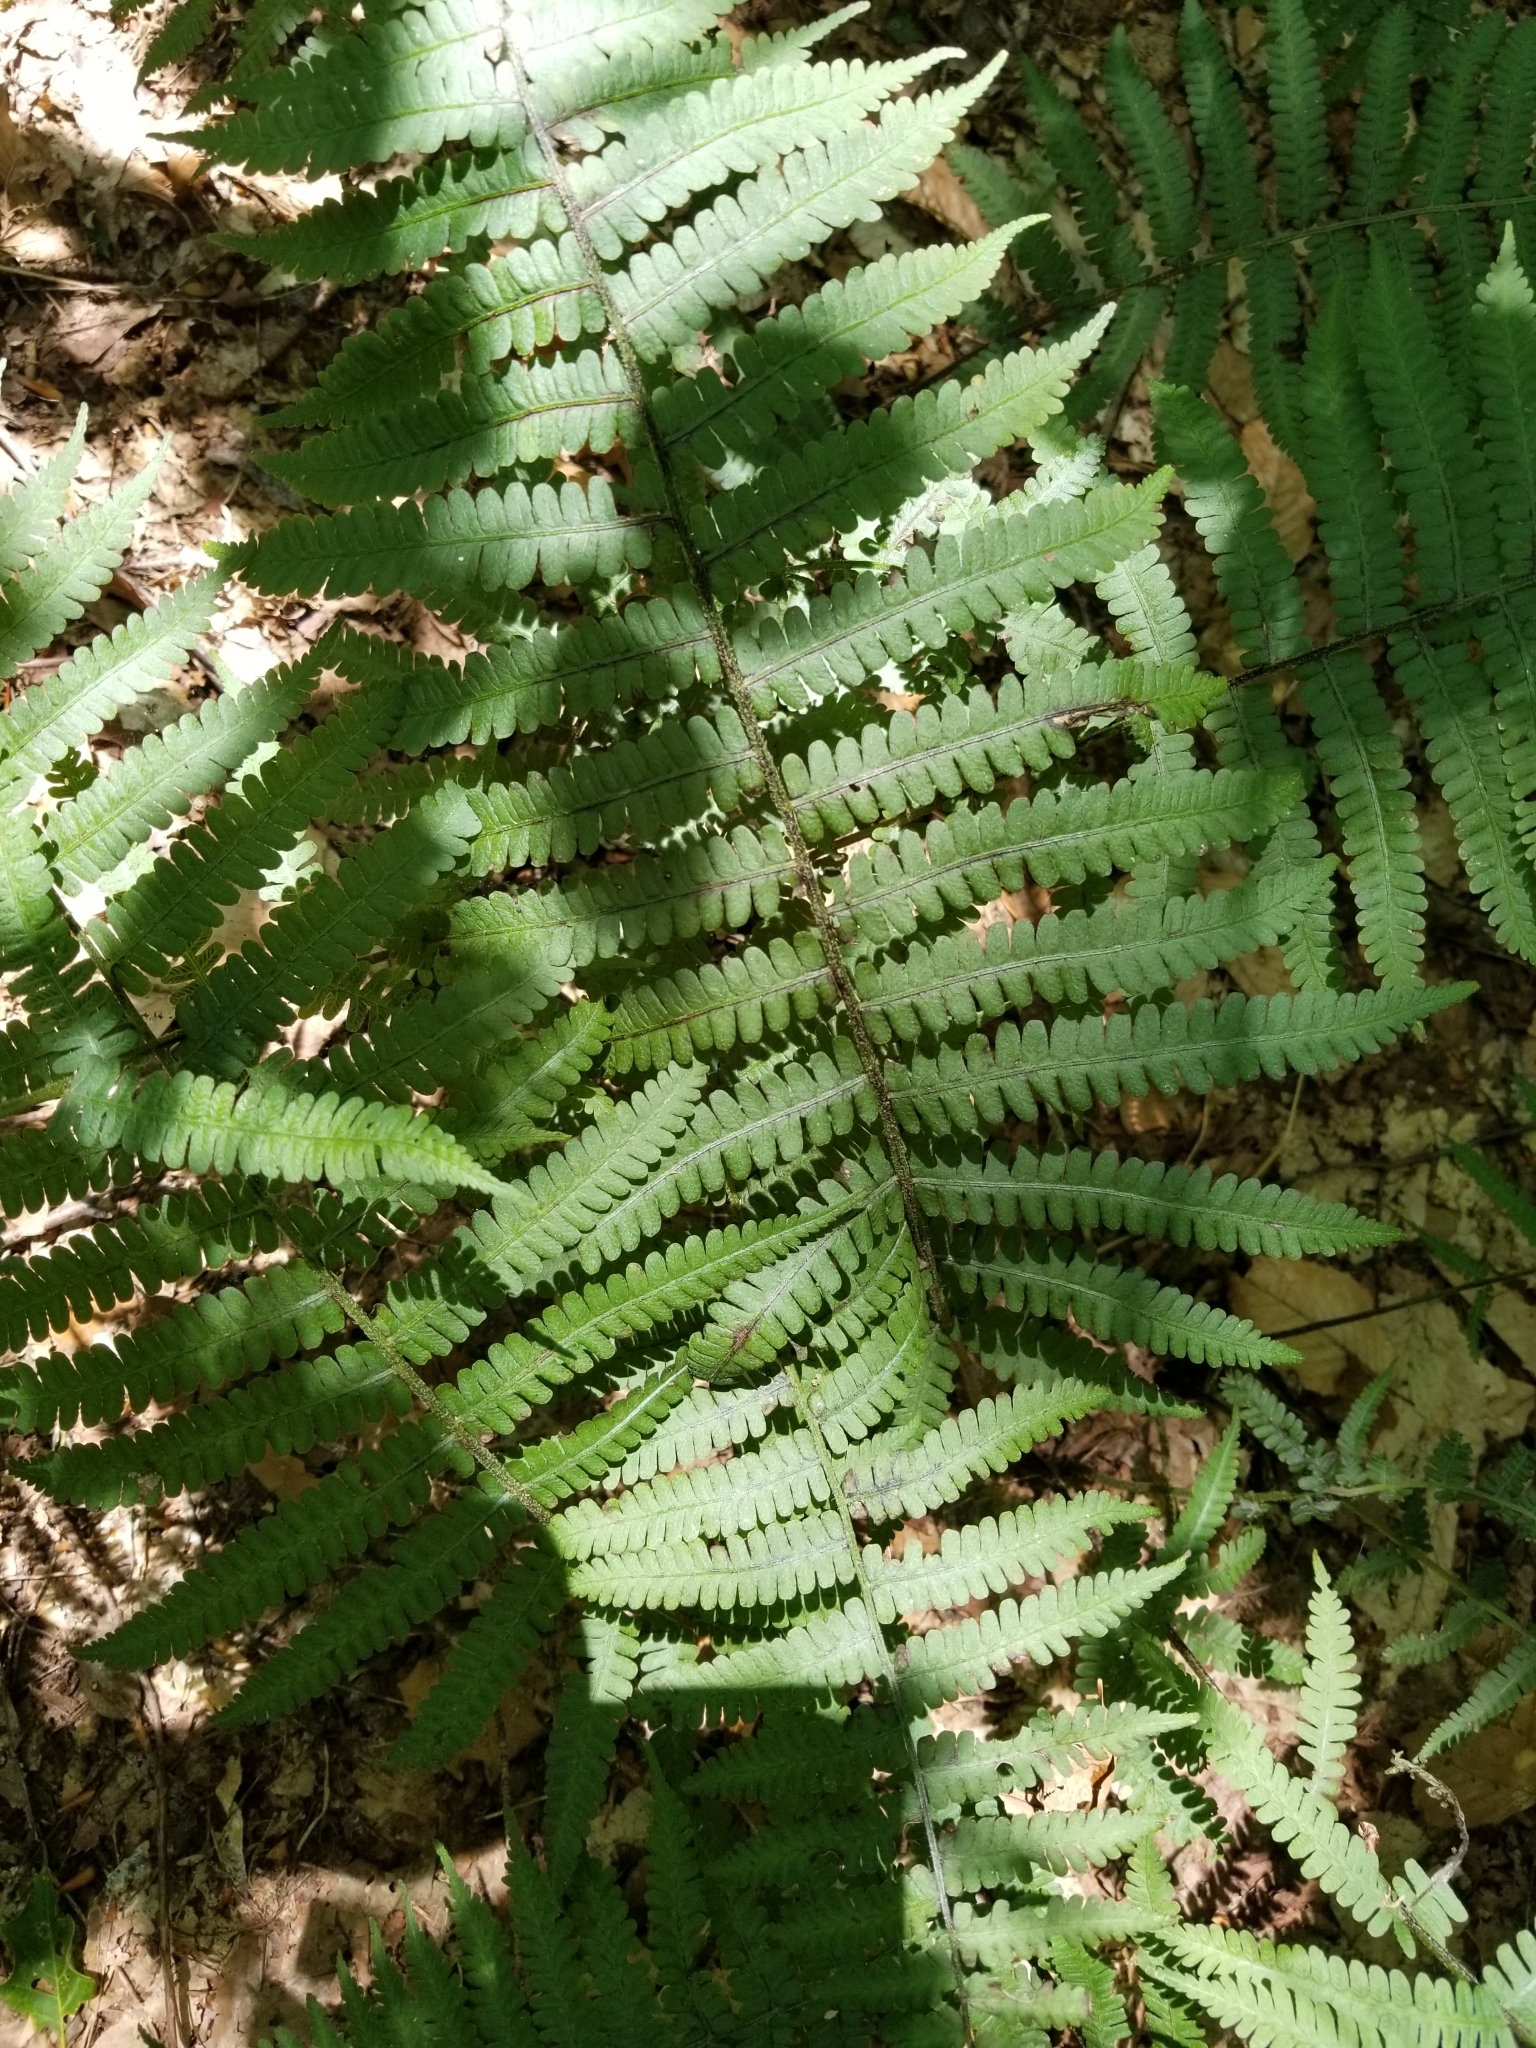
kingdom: Plantae
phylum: Tracheophyta
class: Polypodiopsida
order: Polypodiales
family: Athyriaceae
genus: Deparia
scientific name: Deparia acrostichoides
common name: Silver false spleenwort
